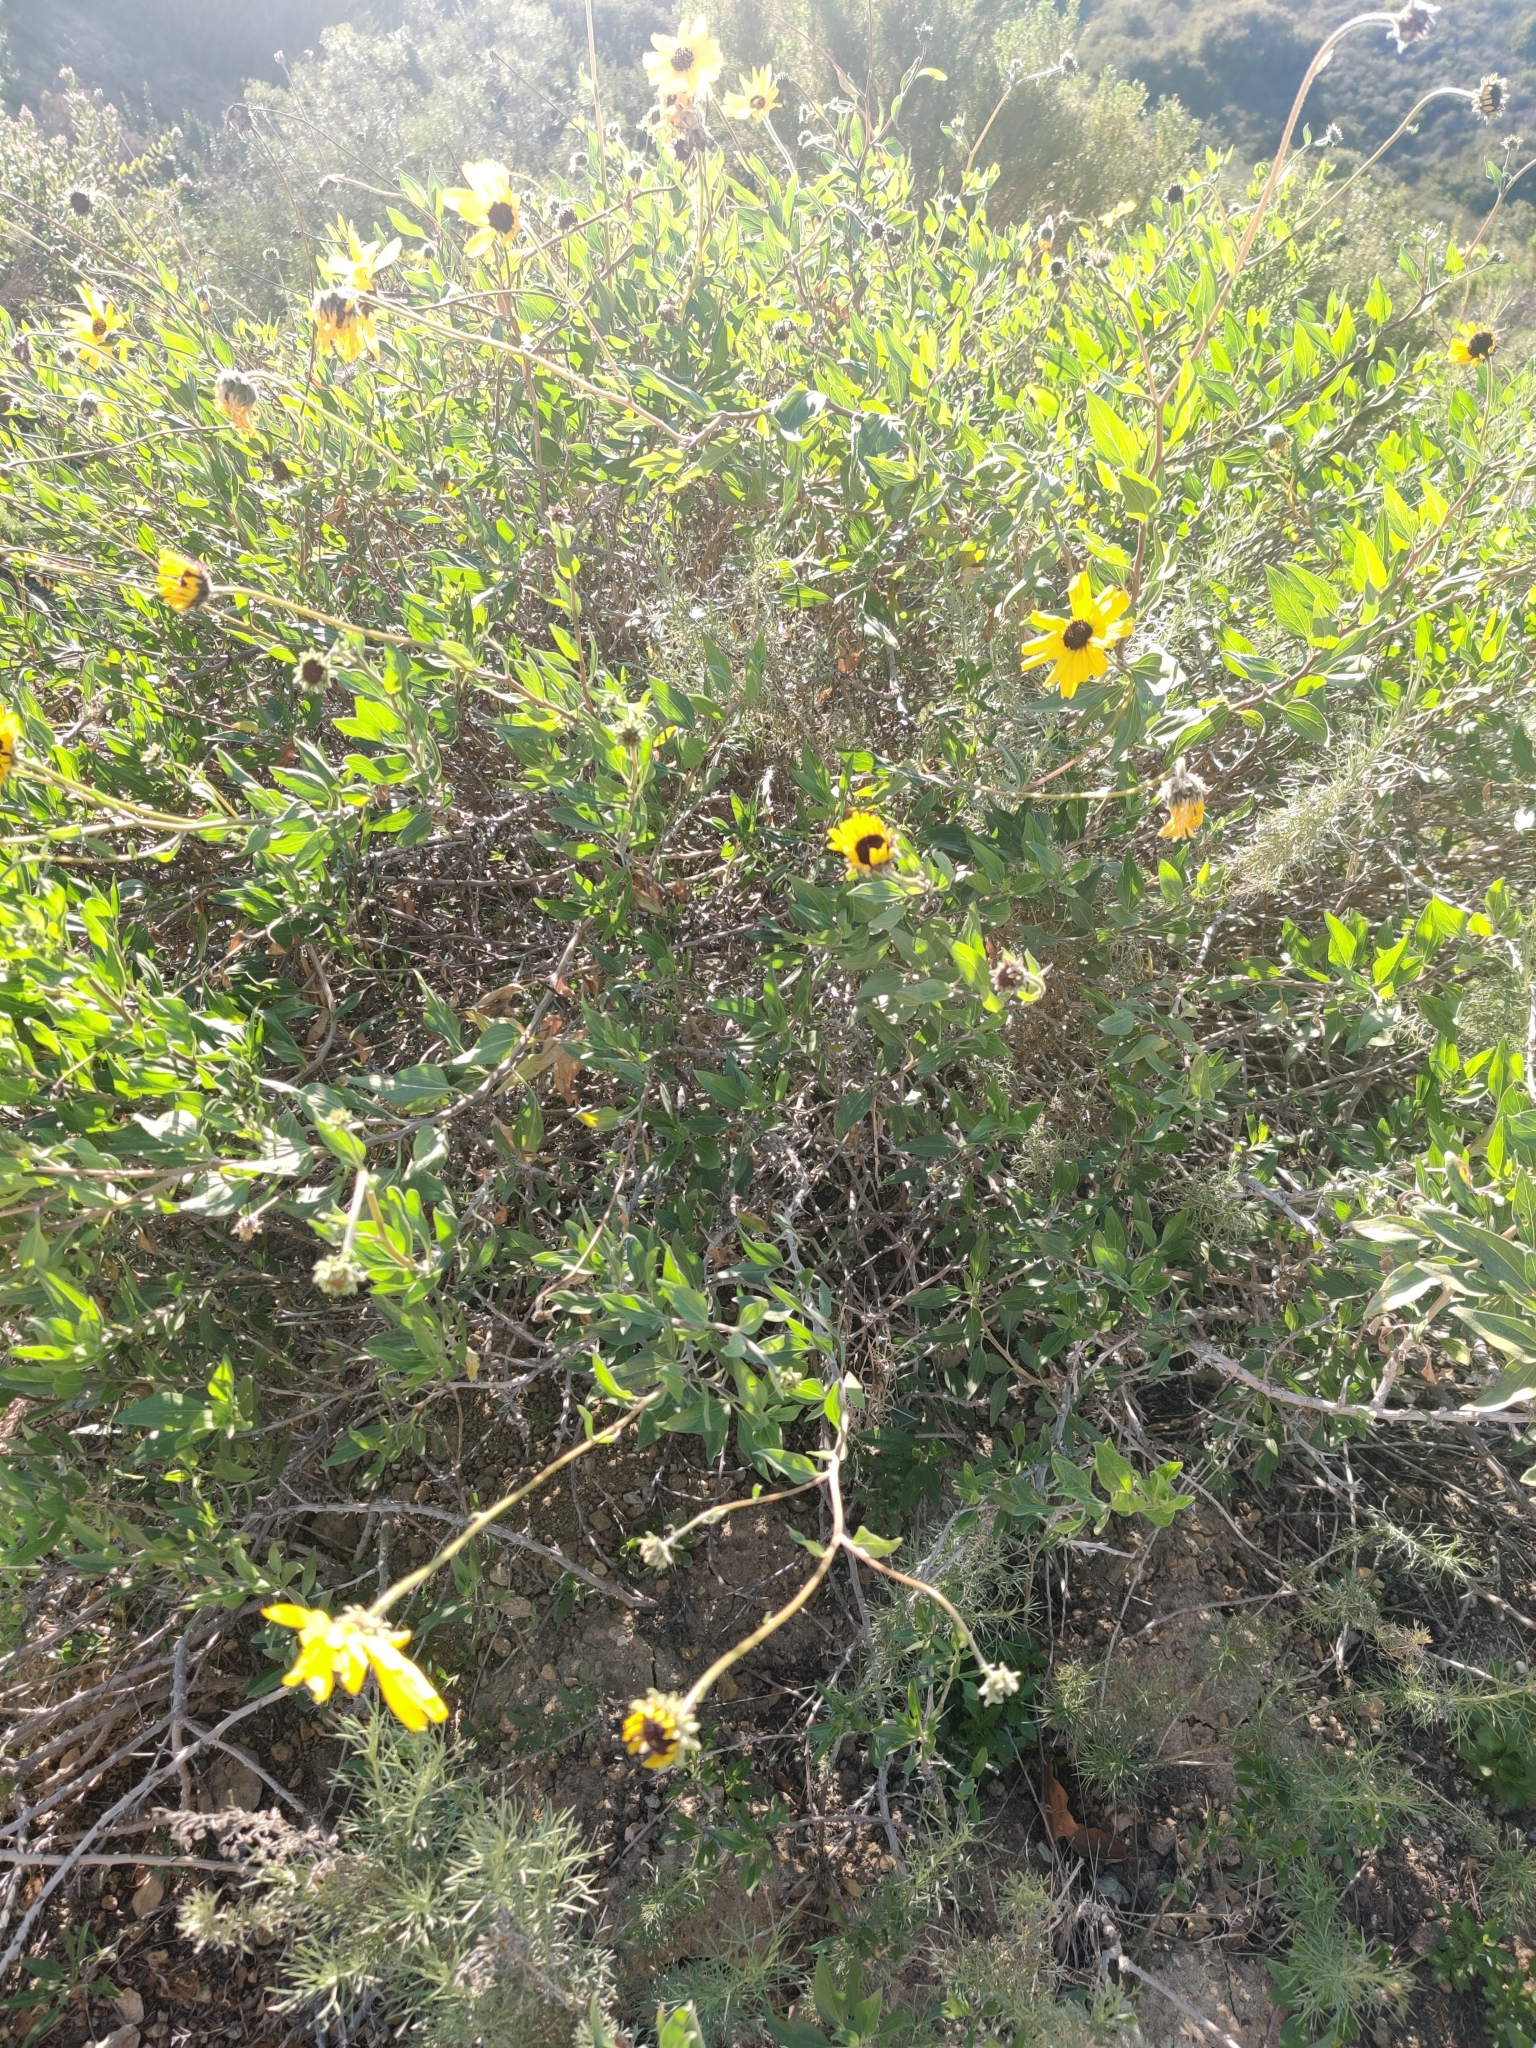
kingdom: Plantae
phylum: Tracheophyta
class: Magnoliopsida
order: Asterales
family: Asteraceae
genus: Encelia
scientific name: Encelia californica
